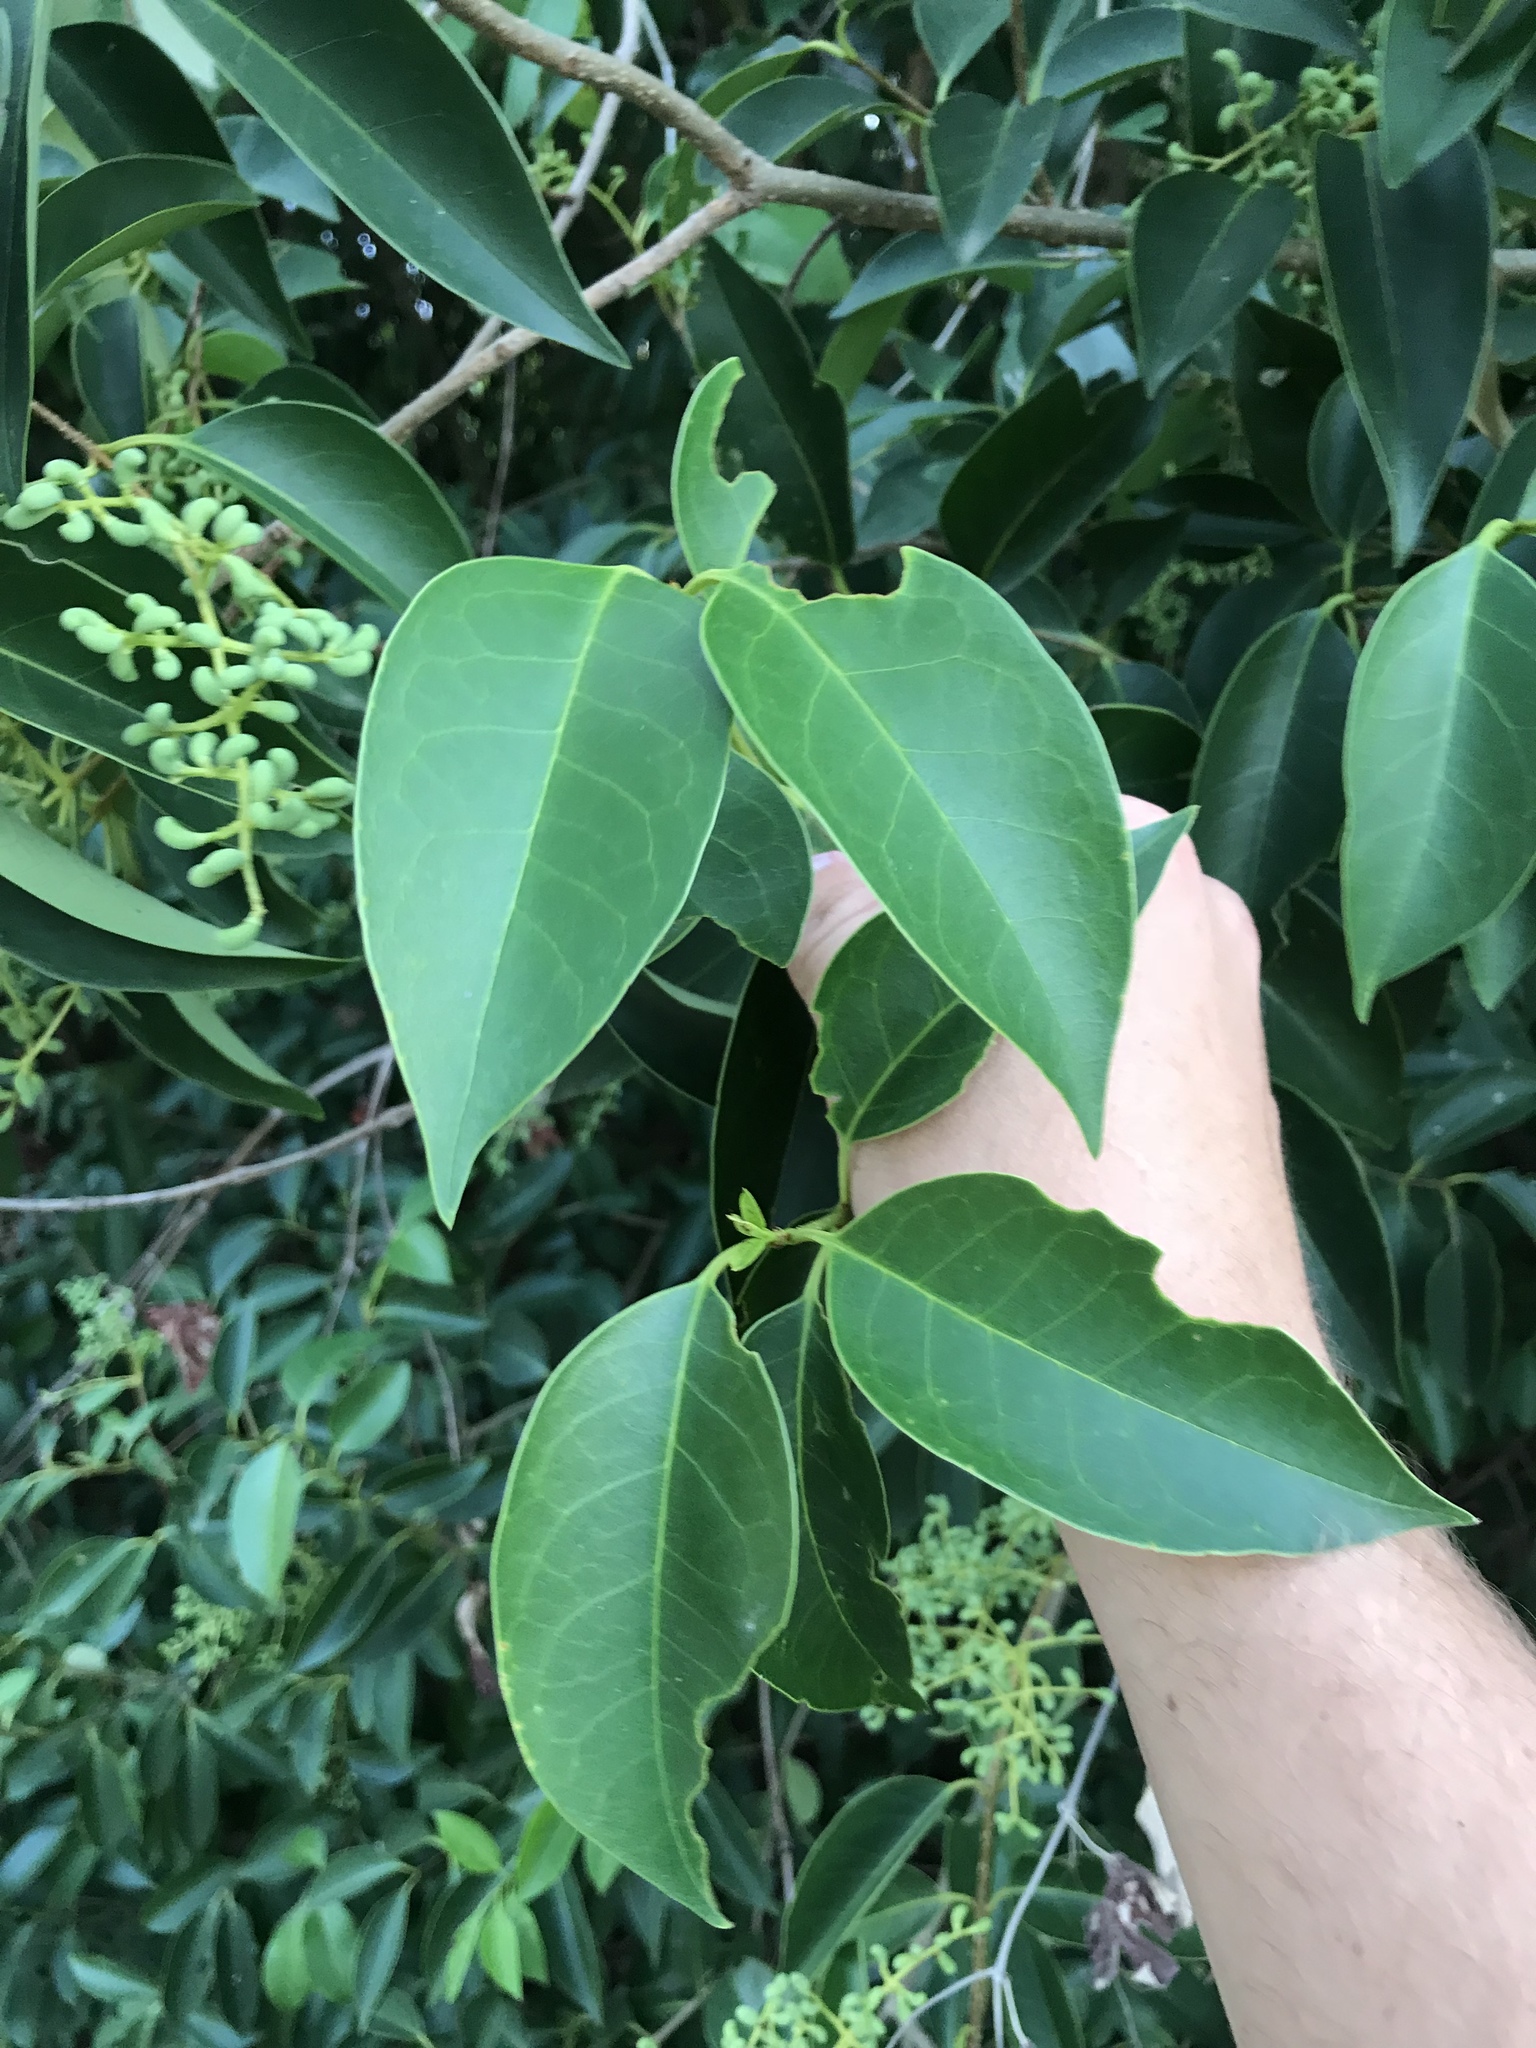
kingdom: Plantae
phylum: Tracheophyta
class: Magnoliopsida
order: Lamiales
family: Oleaceae
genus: Ligustrum
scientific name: Ligustrum lucidum
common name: Glossy privet
